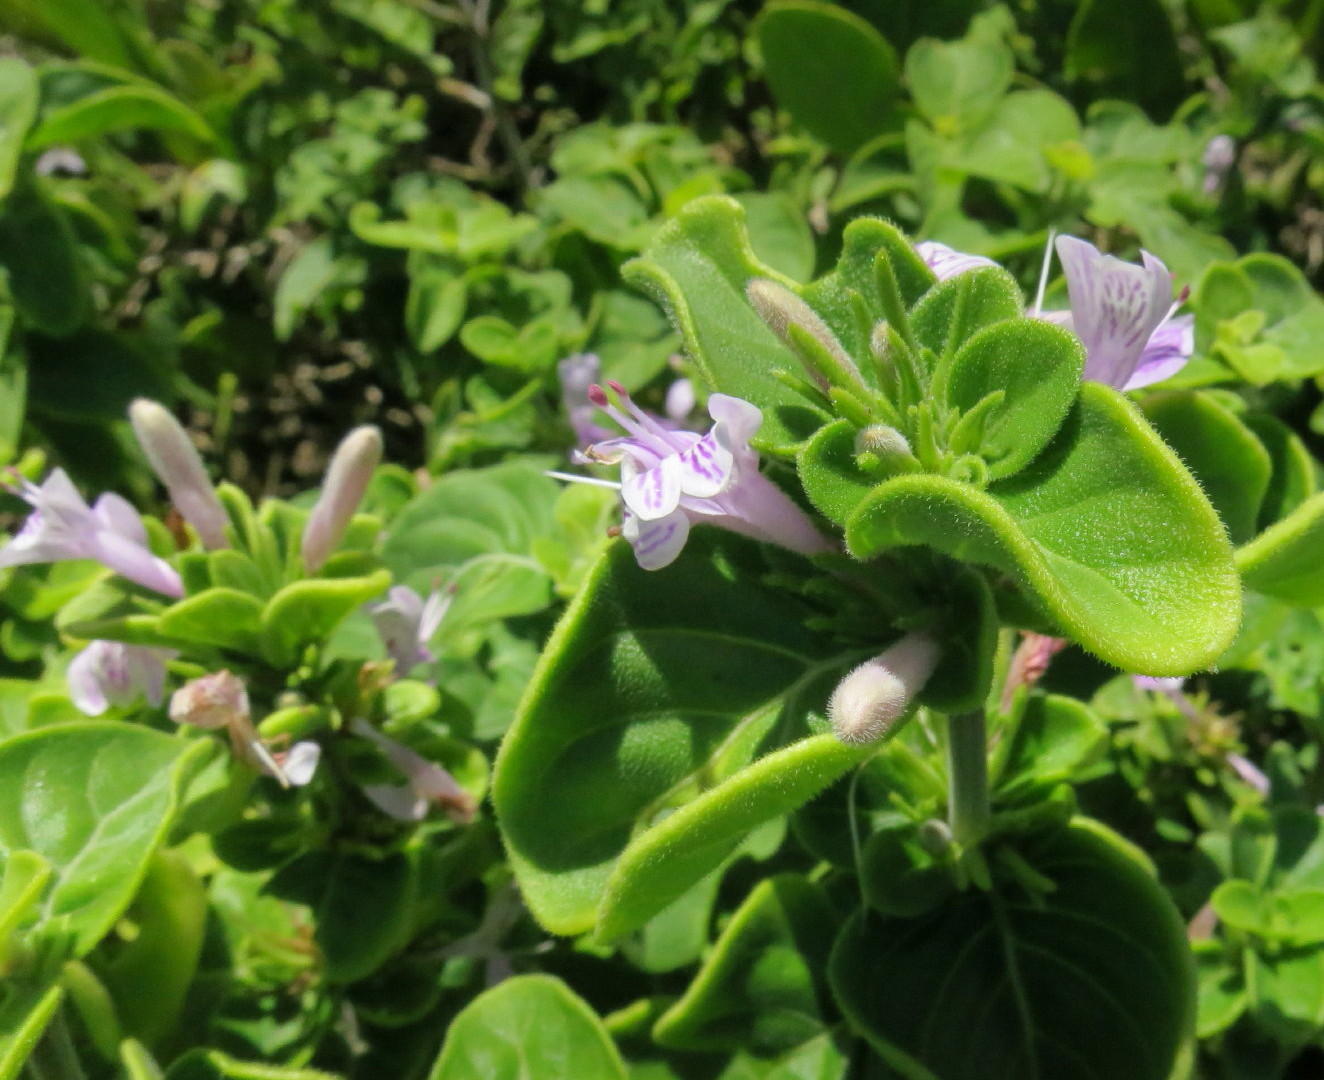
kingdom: Plantae
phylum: Tracheophyta
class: Magnoliopsida
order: Lamiales
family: Acanthaceae
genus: Hypoestes
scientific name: Hypoestes aristata
